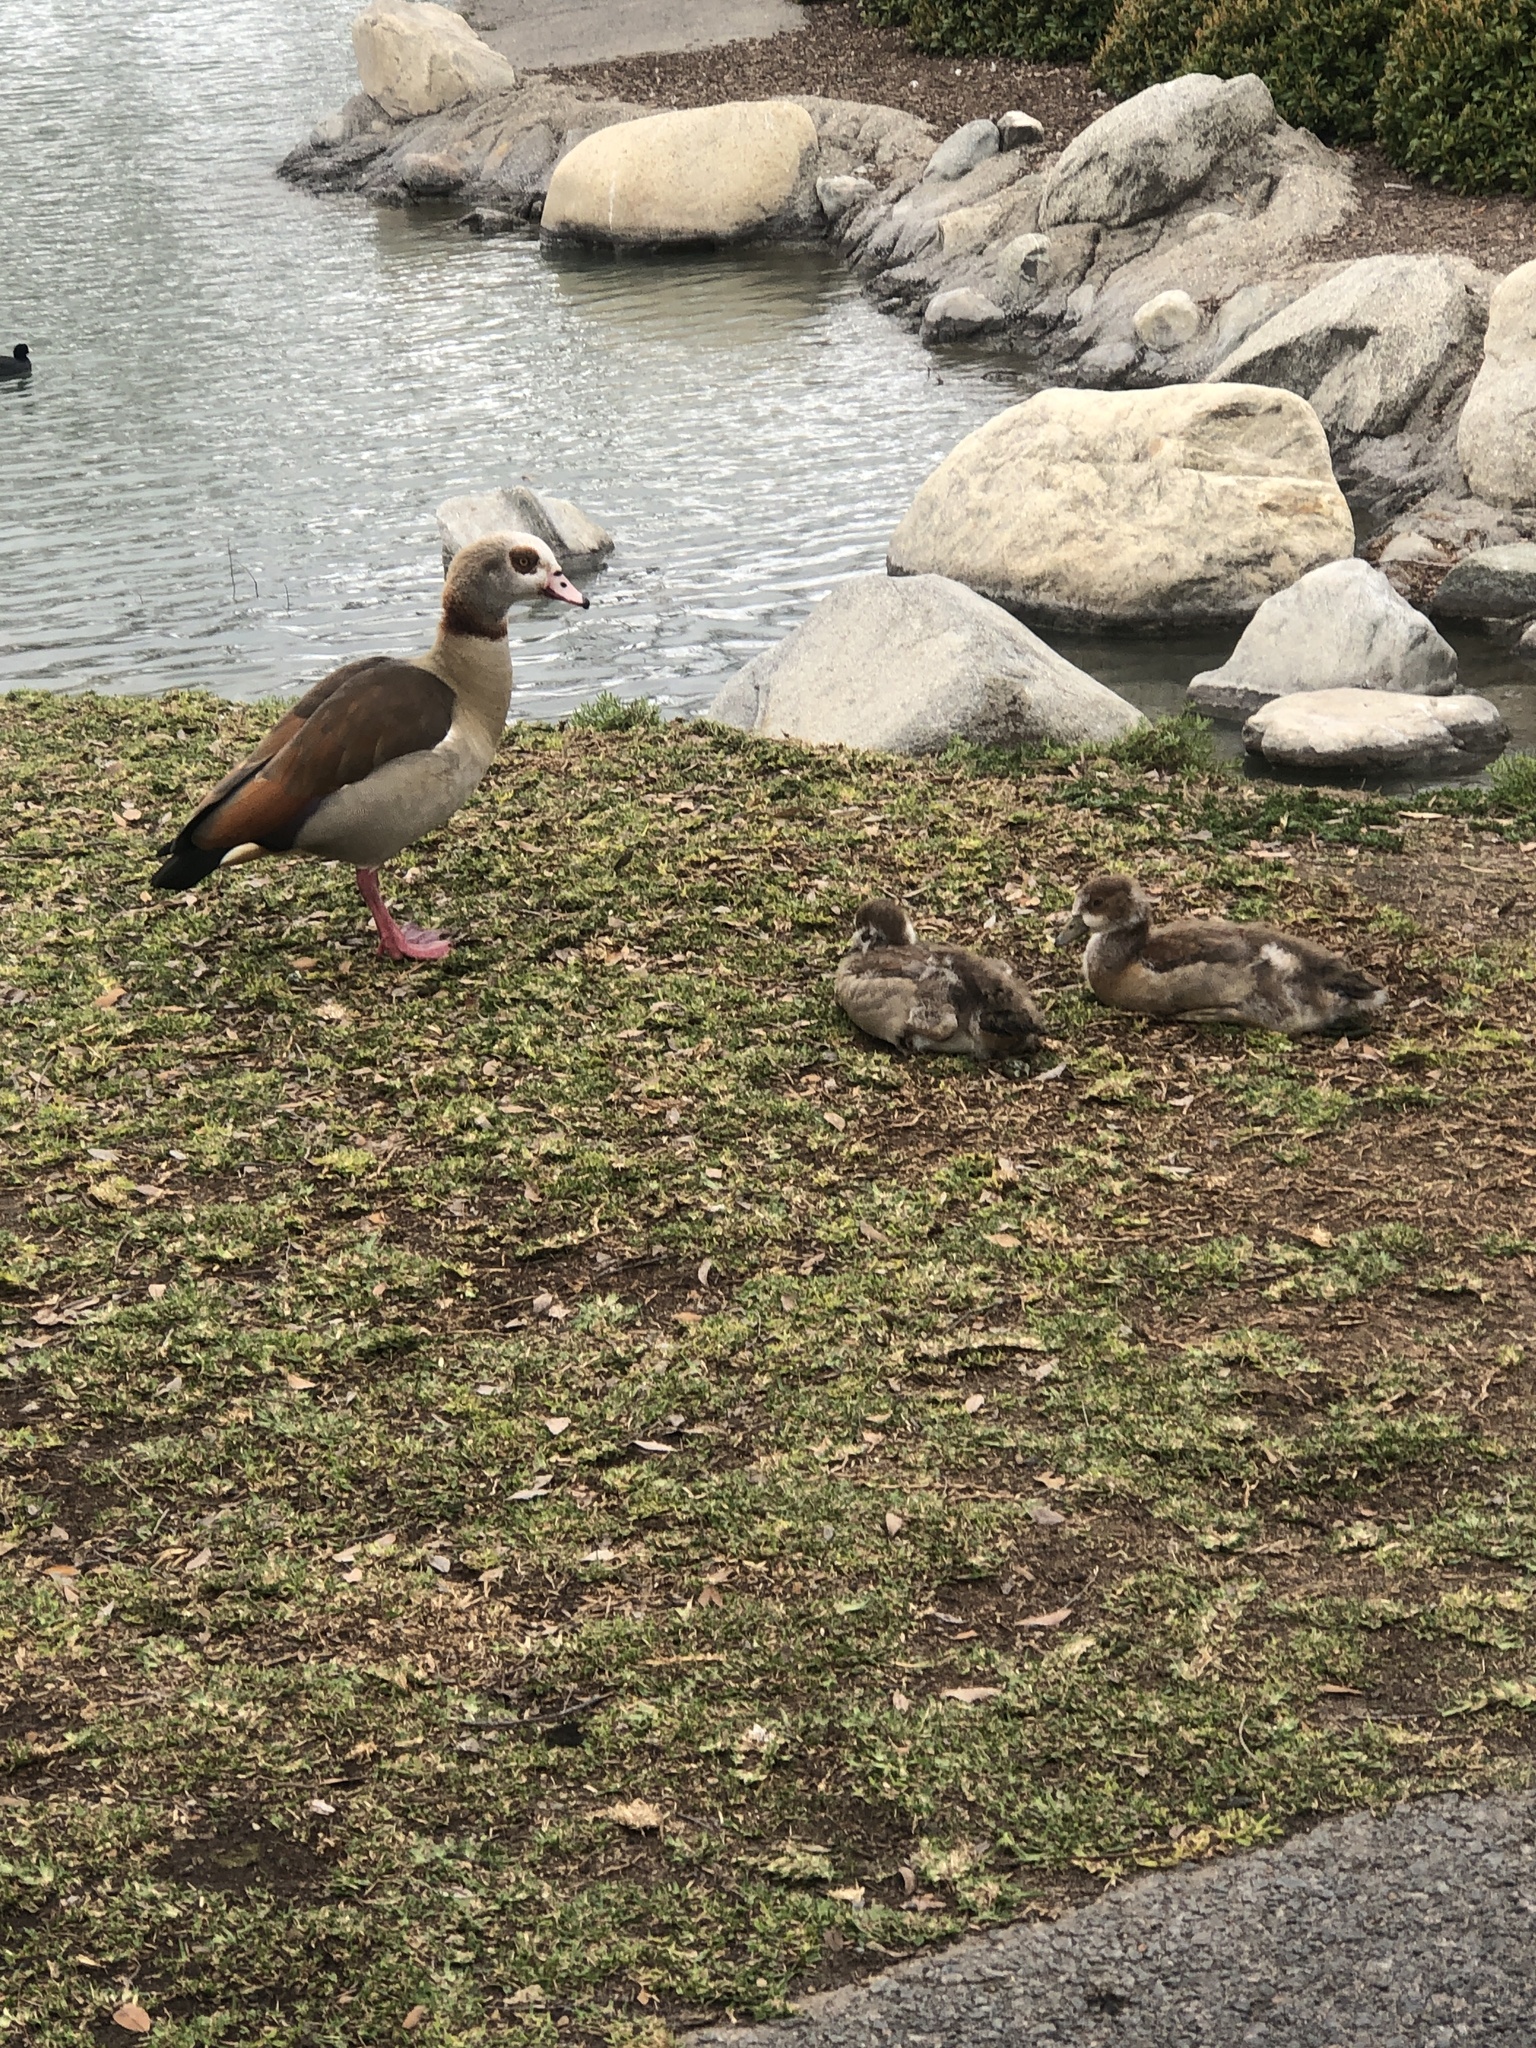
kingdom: Animalia
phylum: Chordata
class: Aves
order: Anseriformes
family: Anatidae
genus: Alopochen
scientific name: Alopochen aegyptiaca
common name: Egyptian goose
